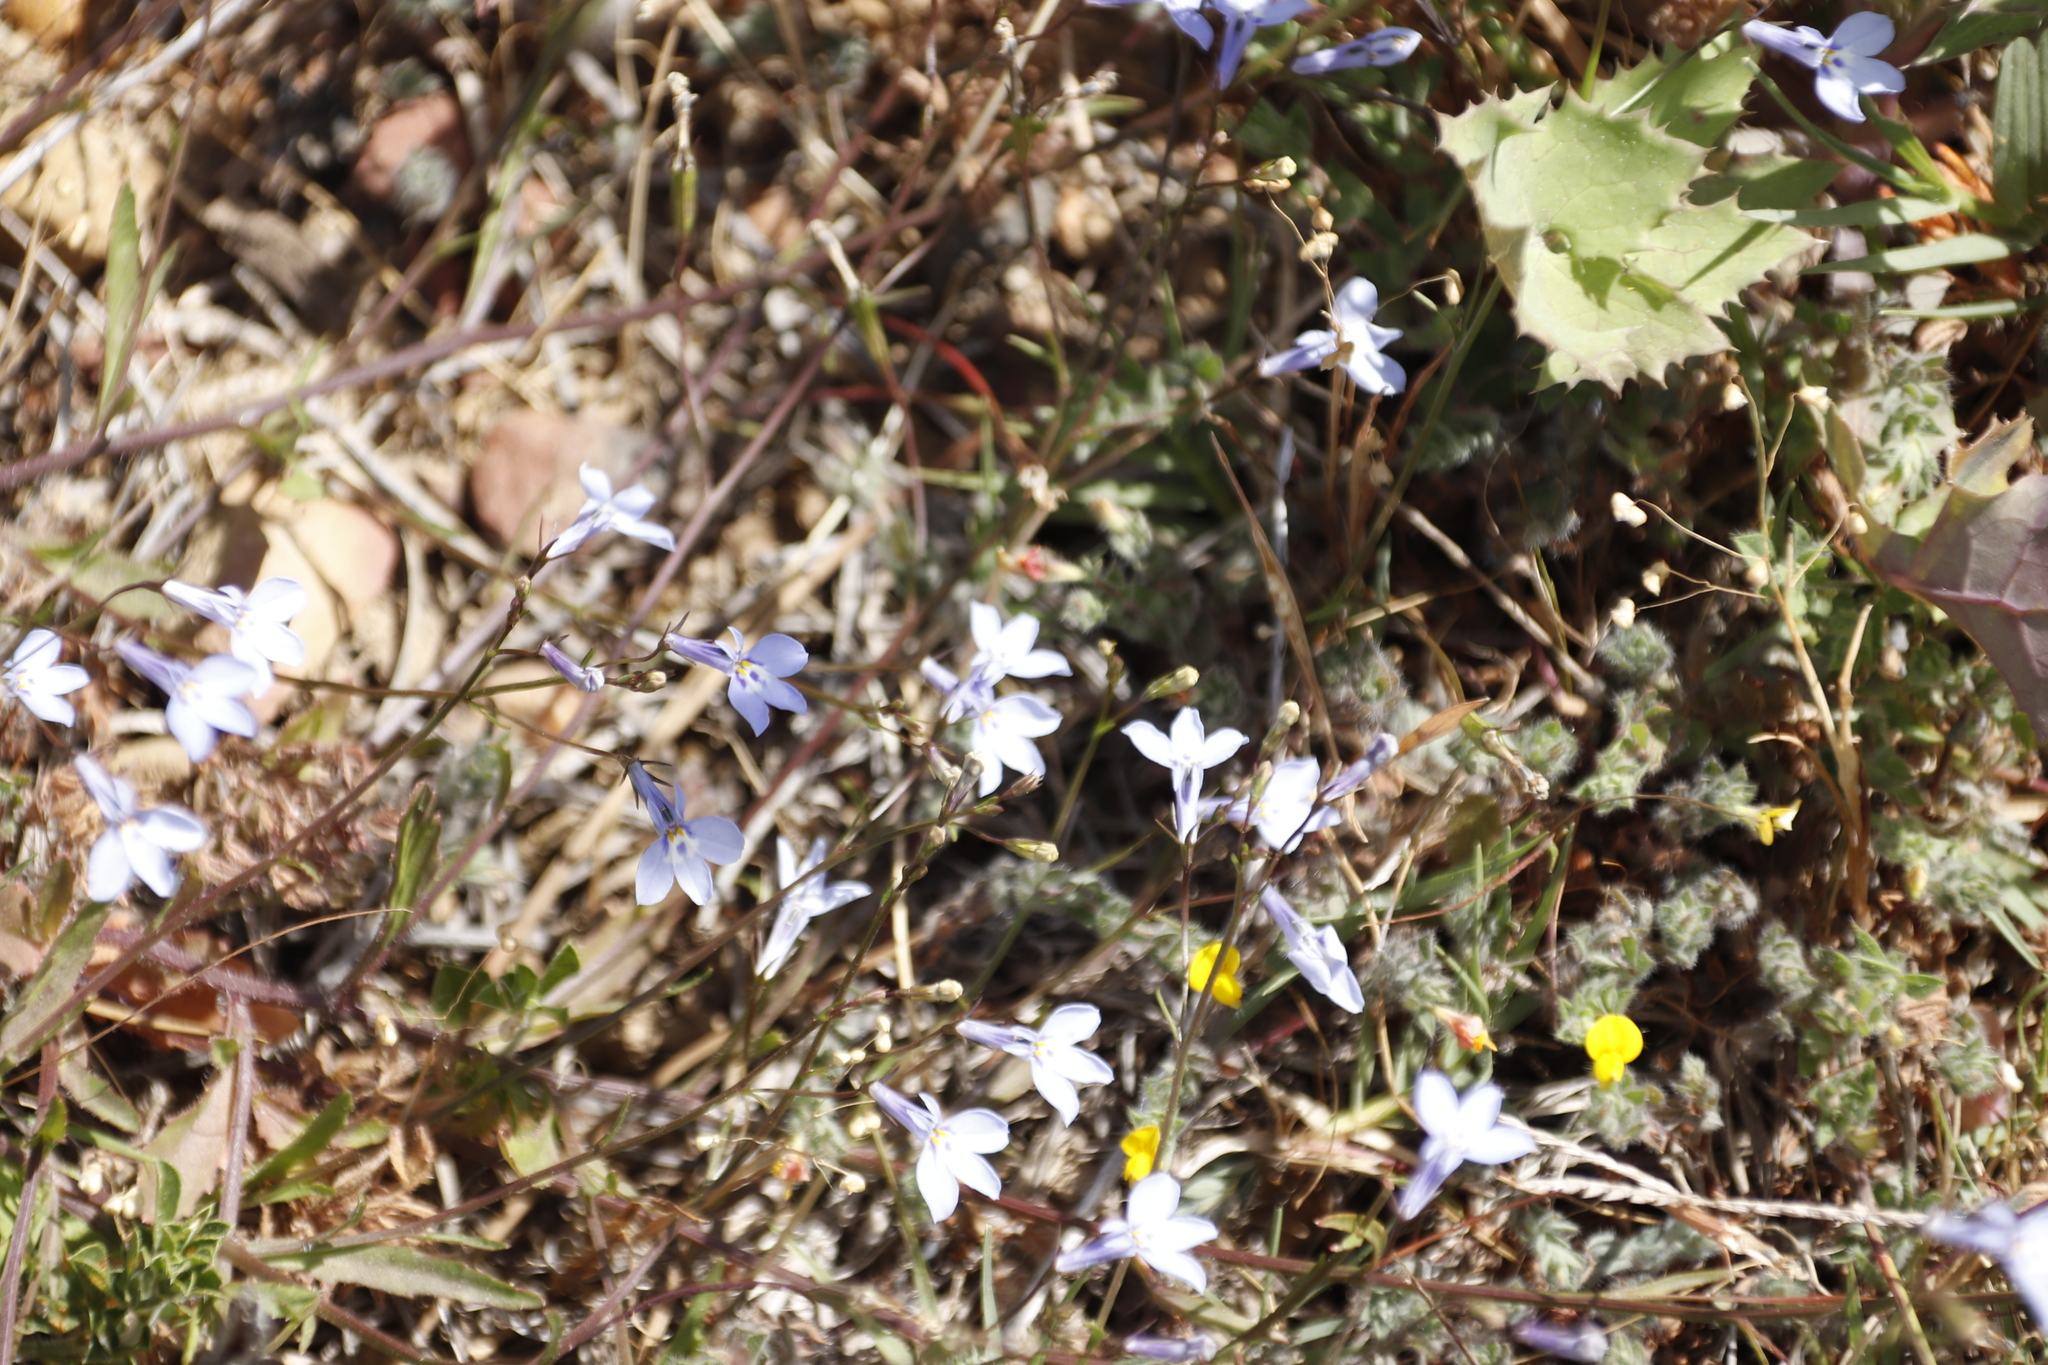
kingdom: Plantae
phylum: Tracheophyta
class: Magnoliopsida
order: Asterales
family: Campanulaceae
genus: Lobelia
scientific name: Lobelia erinus
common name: Edging lobelia
